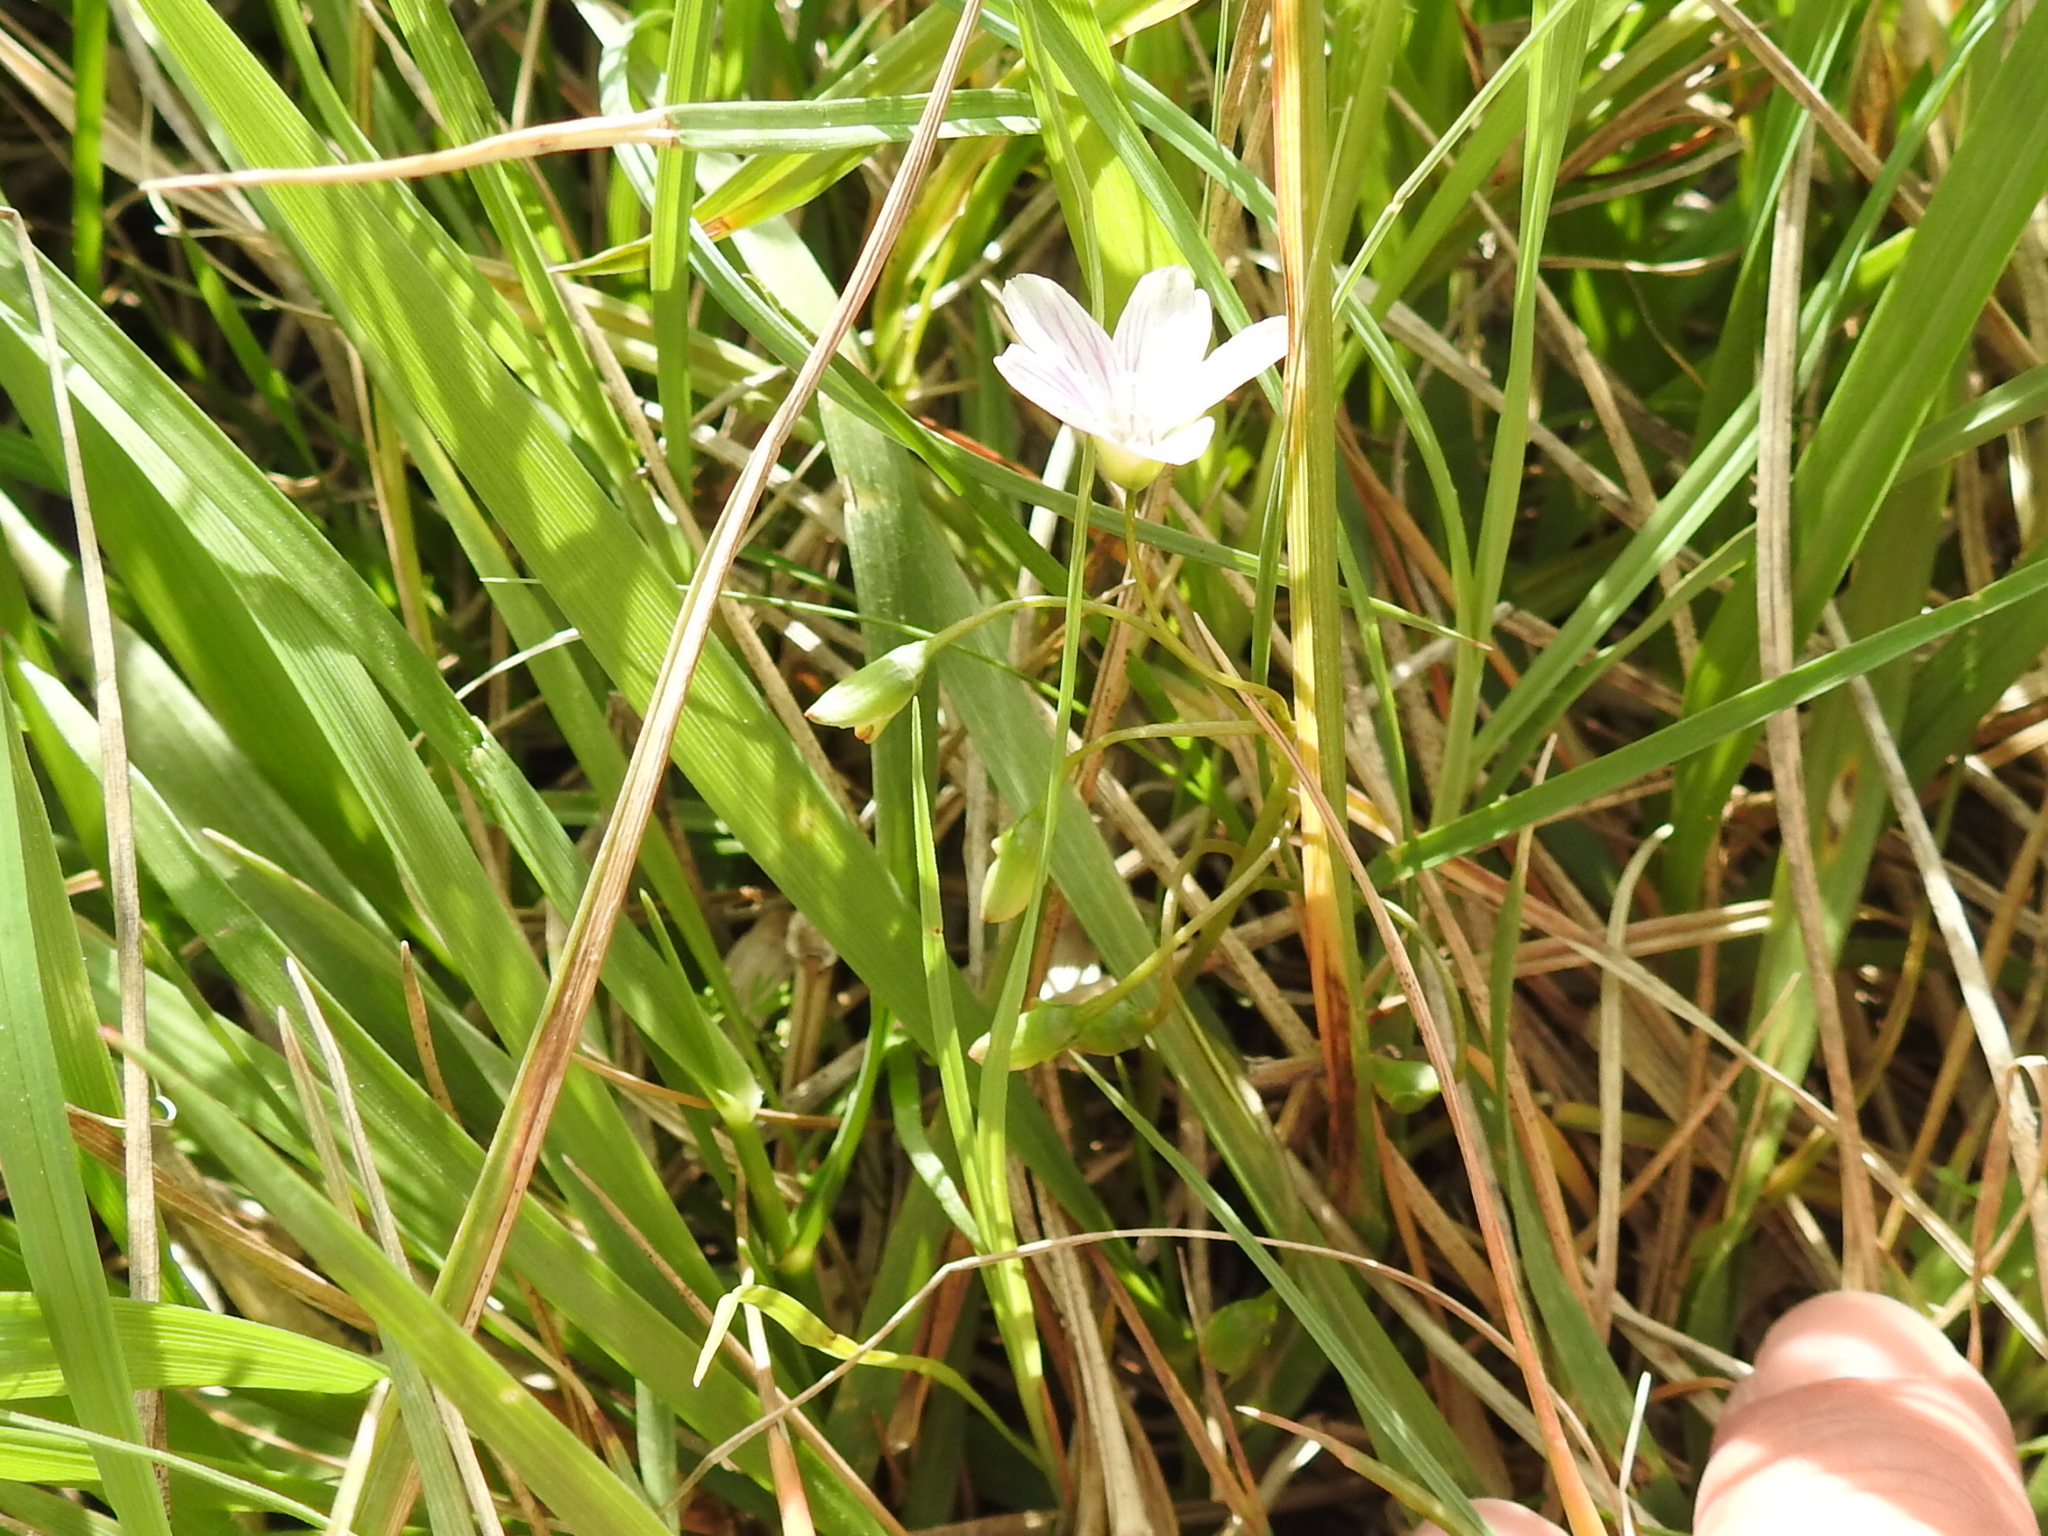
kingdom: Plantae
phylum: Tracheophyta
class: Magnoliopsida
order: Caryophyllales
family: Montiaceae
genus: Claytonia
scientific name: Claytonia virginica
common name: Virginia springbeauty
